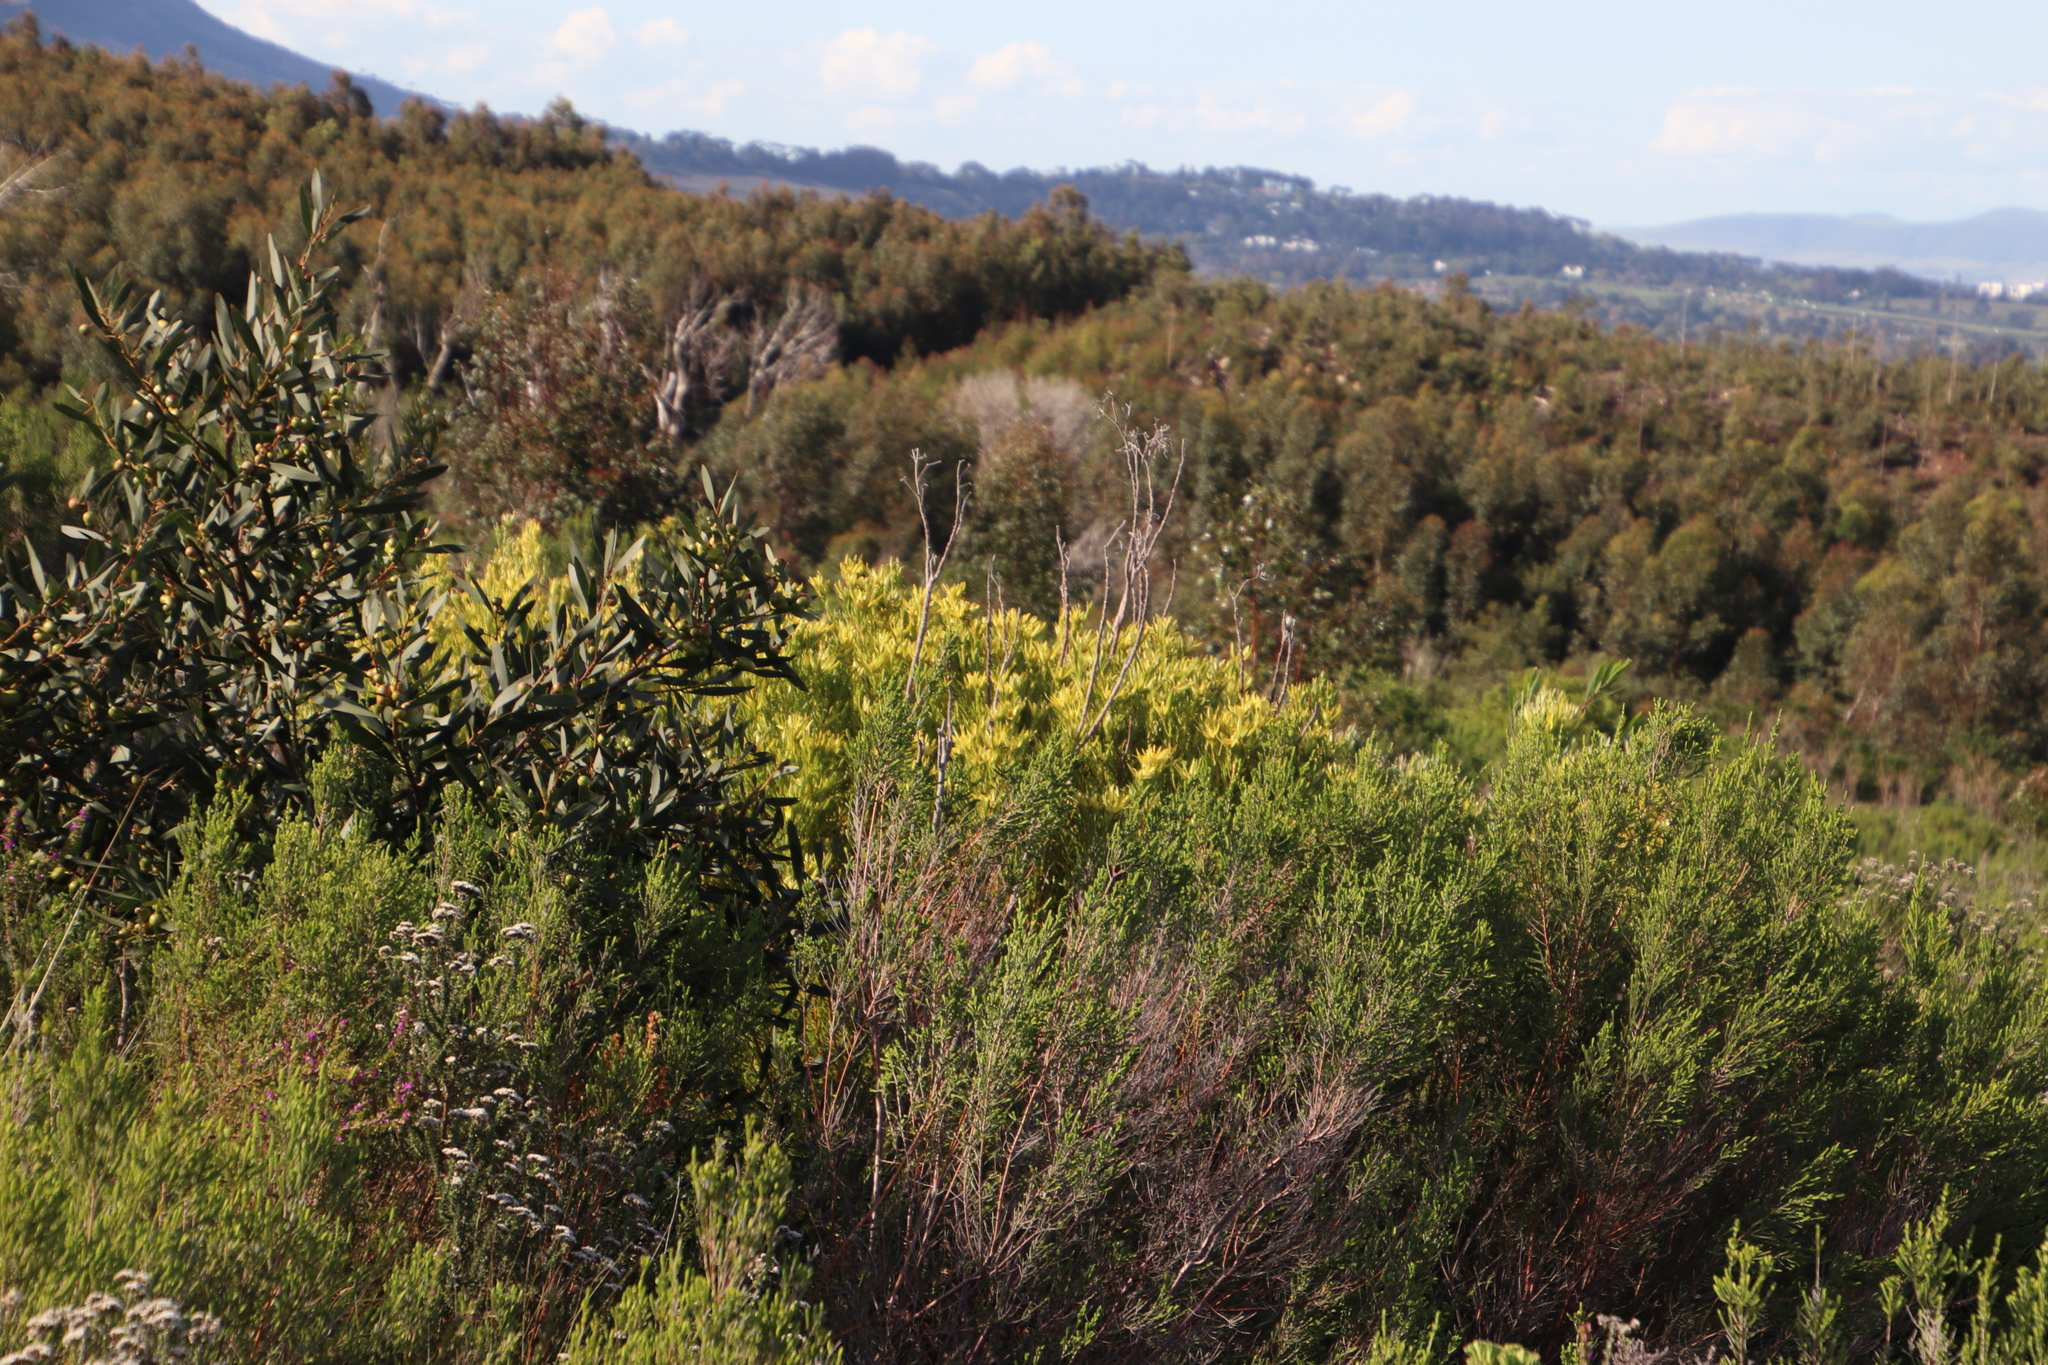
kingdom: Plantae
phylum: Tracheophyta
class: Magnoliopsida
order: Proteales
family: Proteaceae
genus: Leucadendron
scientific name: Leucadendron xanthoconus
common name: Sickle-leaf conebush
